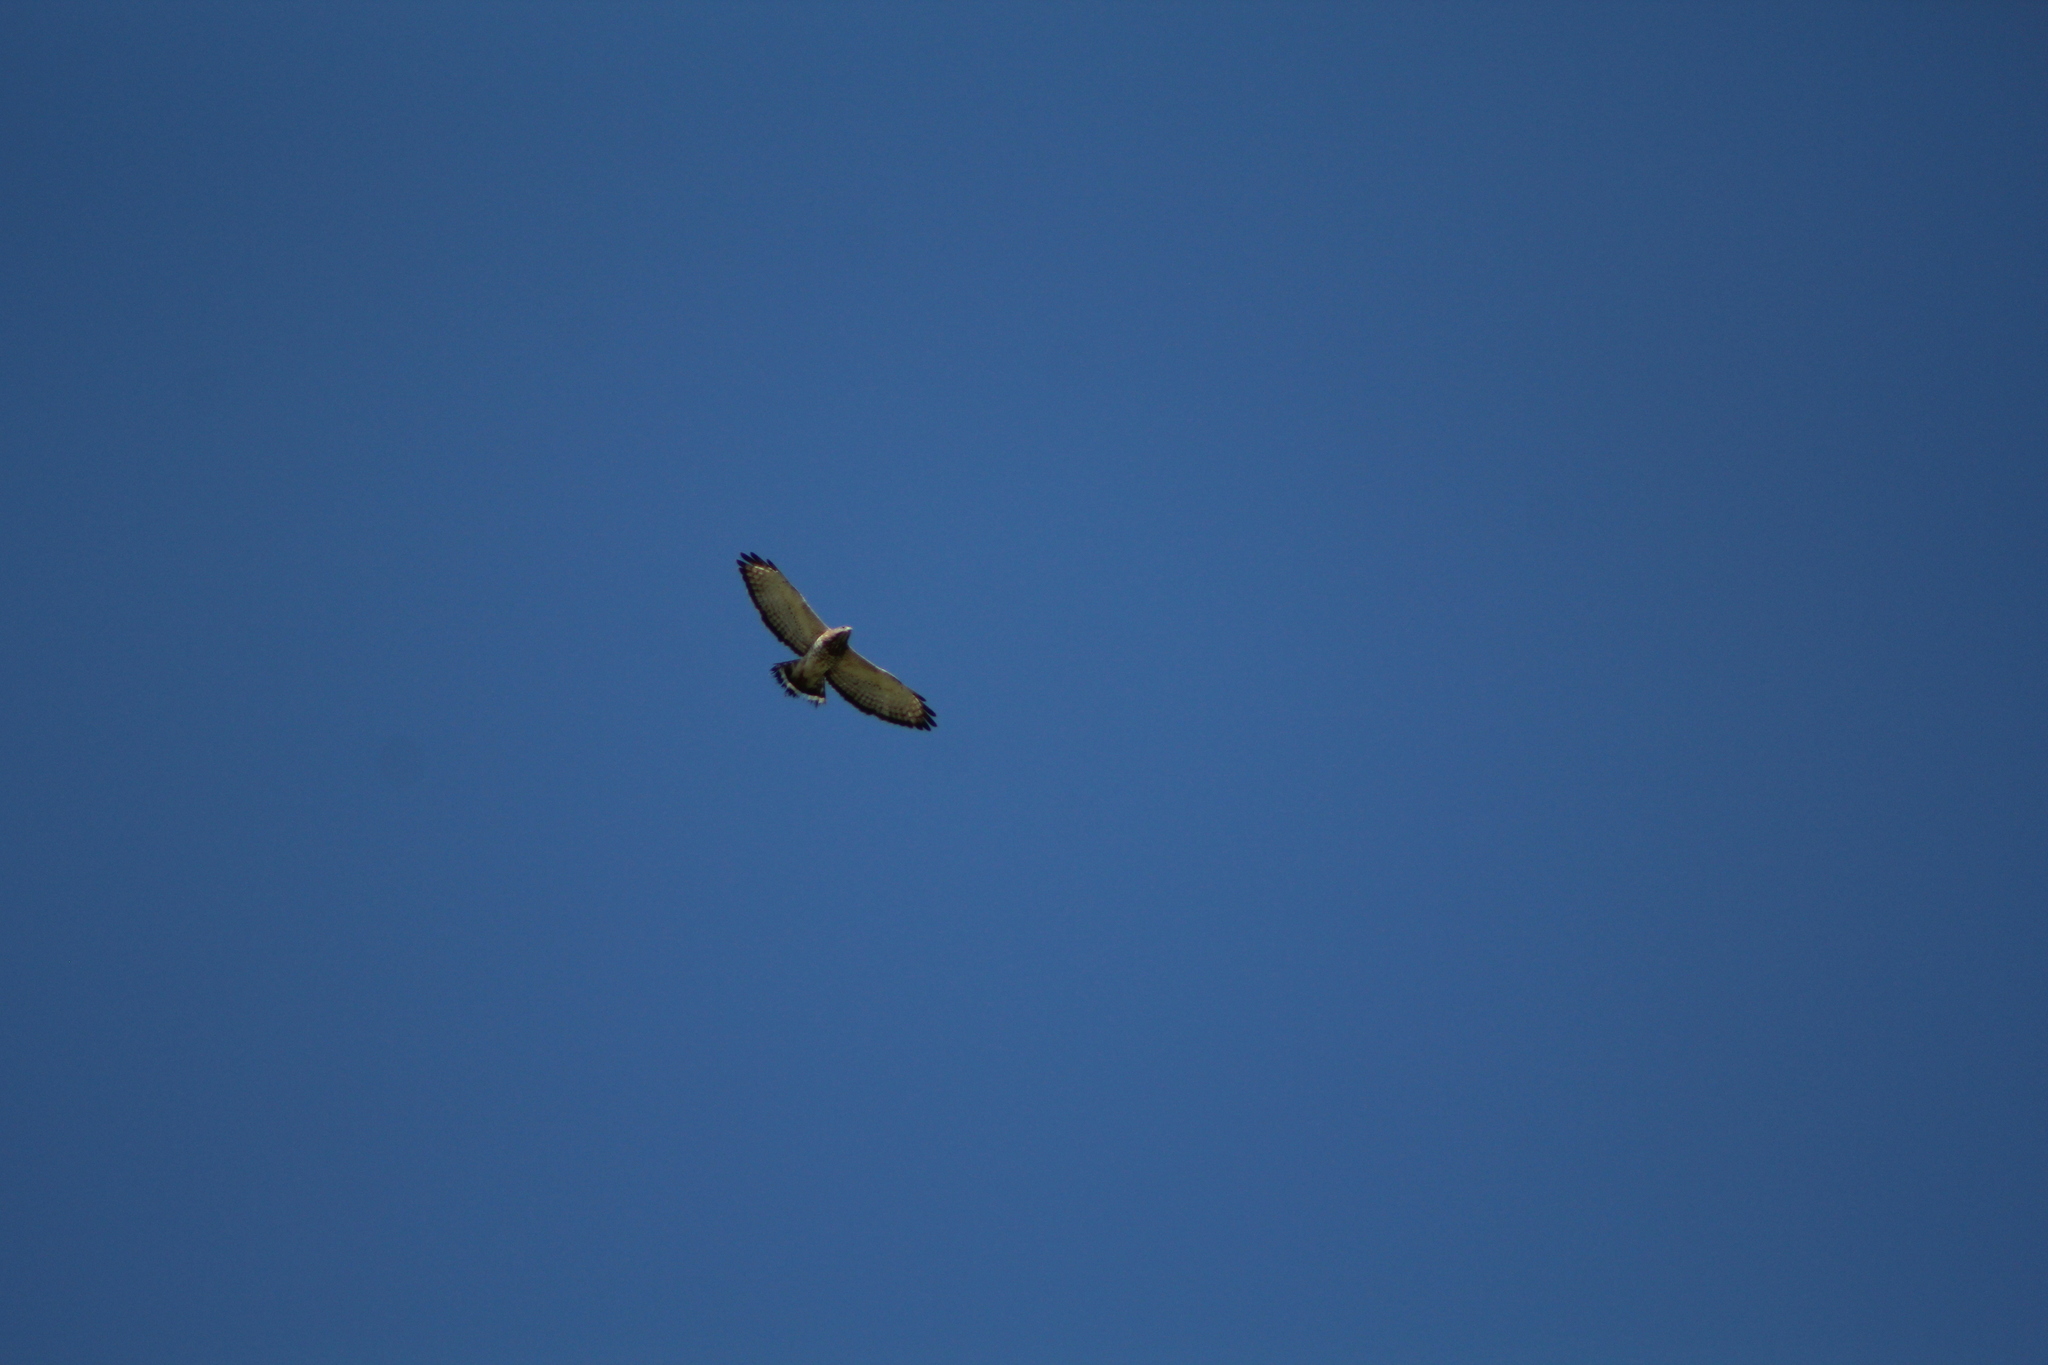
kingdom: Animalia
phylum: Chordata
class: Aves
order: Accipitriformes
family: Accipitridae
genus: Buteo
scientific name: Buteo platypterus
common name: Broad-winged hawk
